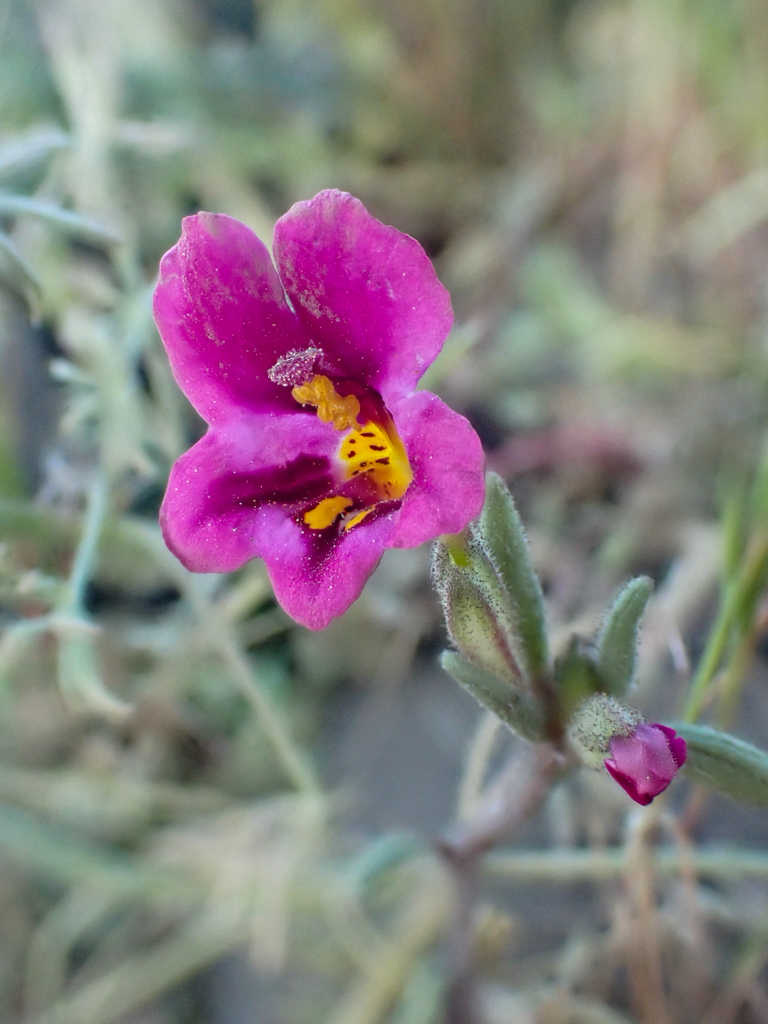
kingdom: Plantae
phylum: Tracheophyta
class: Magnoliopsida
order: Lamiales
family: Phrymaceae
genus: Diplacus
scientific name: Diplacus kelloggii
